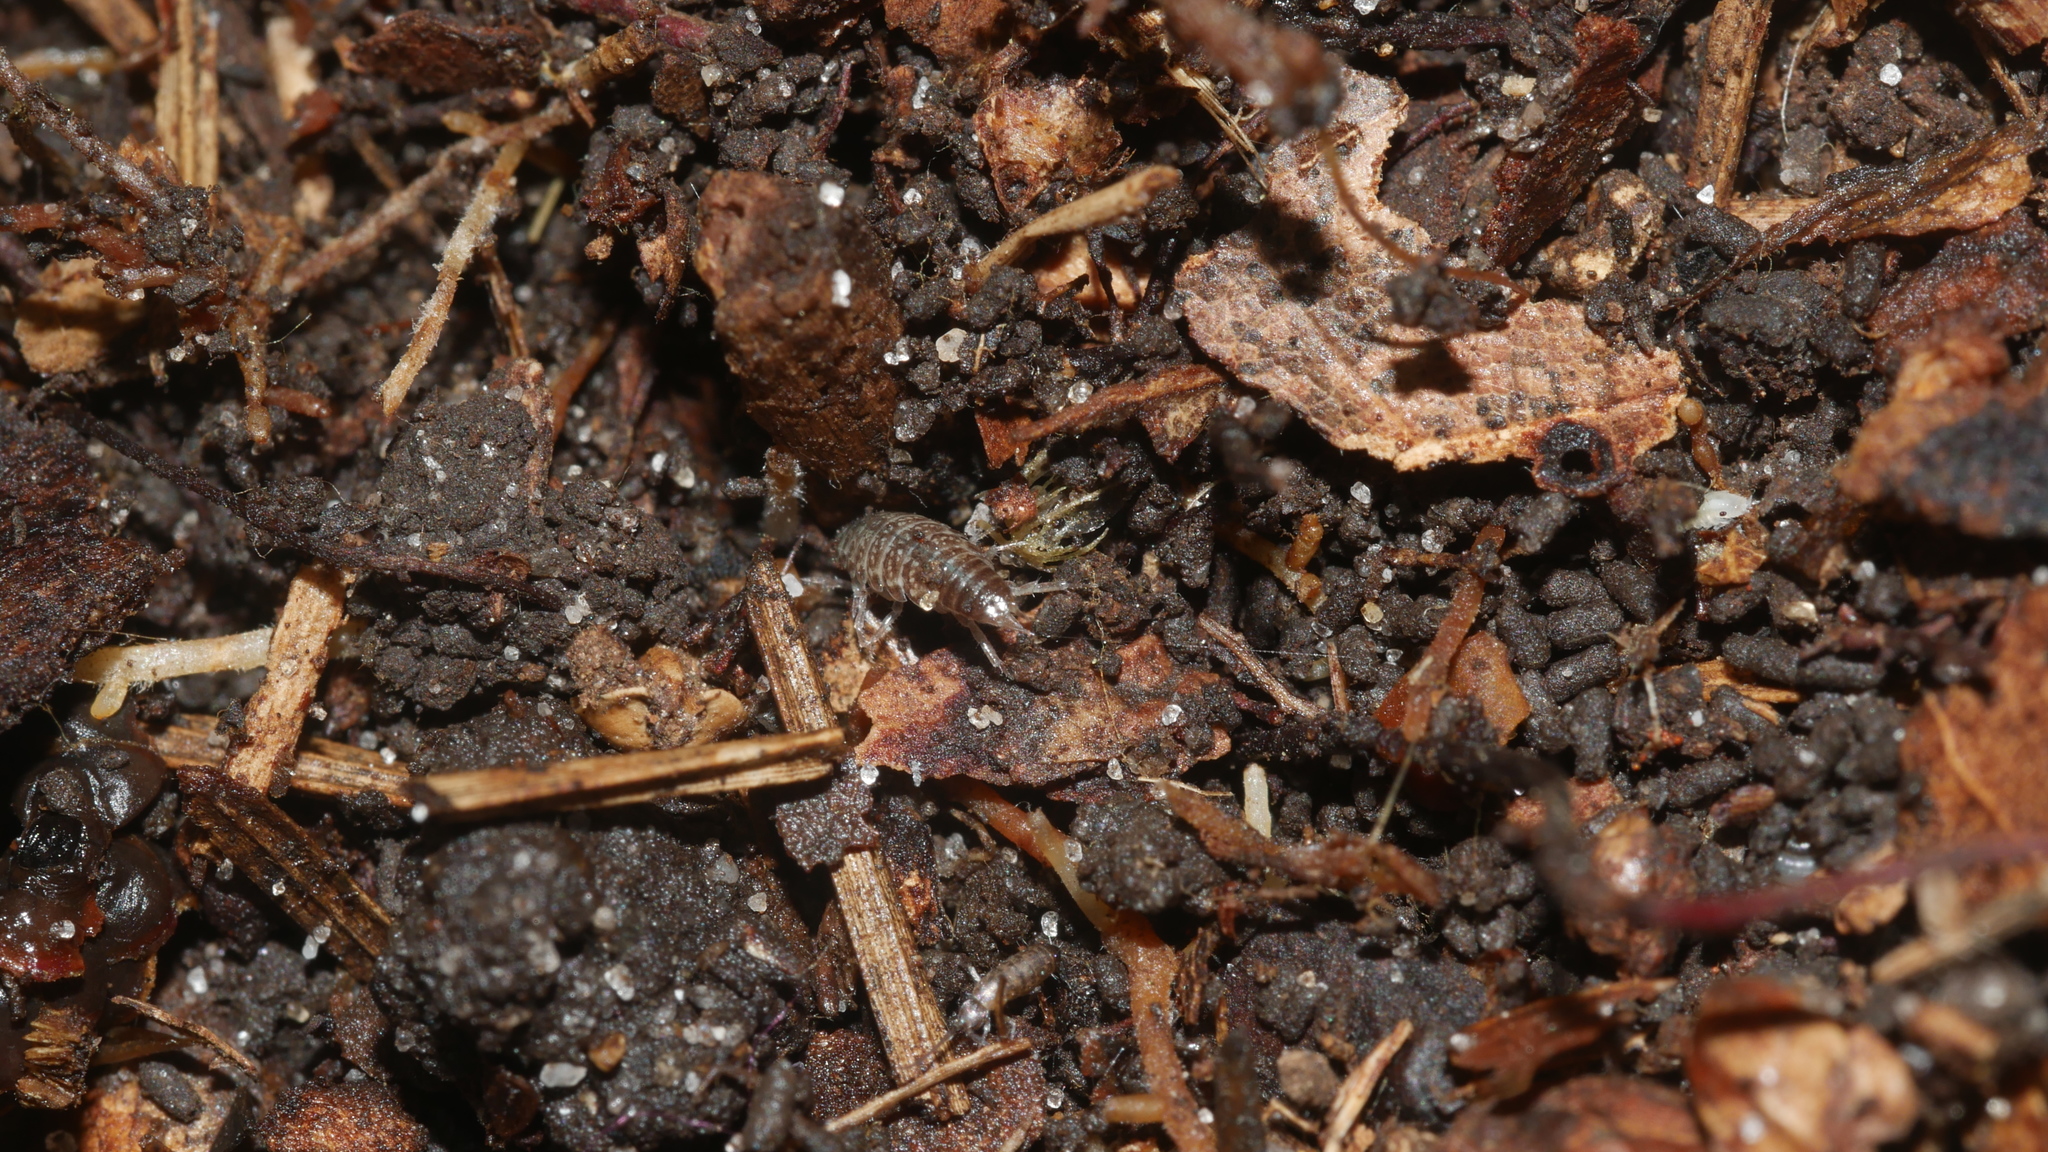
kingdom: Animalia
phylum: Arthropoda
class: Malacostraca
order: Isopoda
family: Philosciidae
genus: Chaetophiloscia
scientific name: Chaetophiloscia sicula
